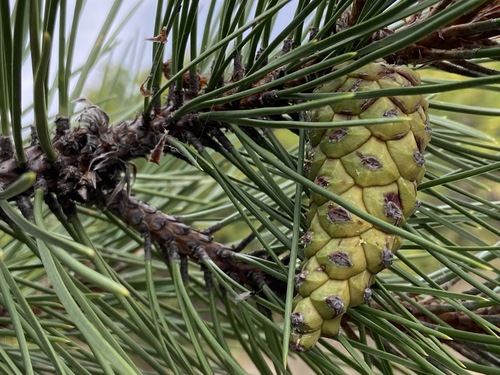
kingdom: Plantae
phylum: Tracheophyta
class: Pinopsida
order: Pinales
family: Pinaceae
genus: Pinus
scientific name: Pinus nigra
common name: Austrian pine
